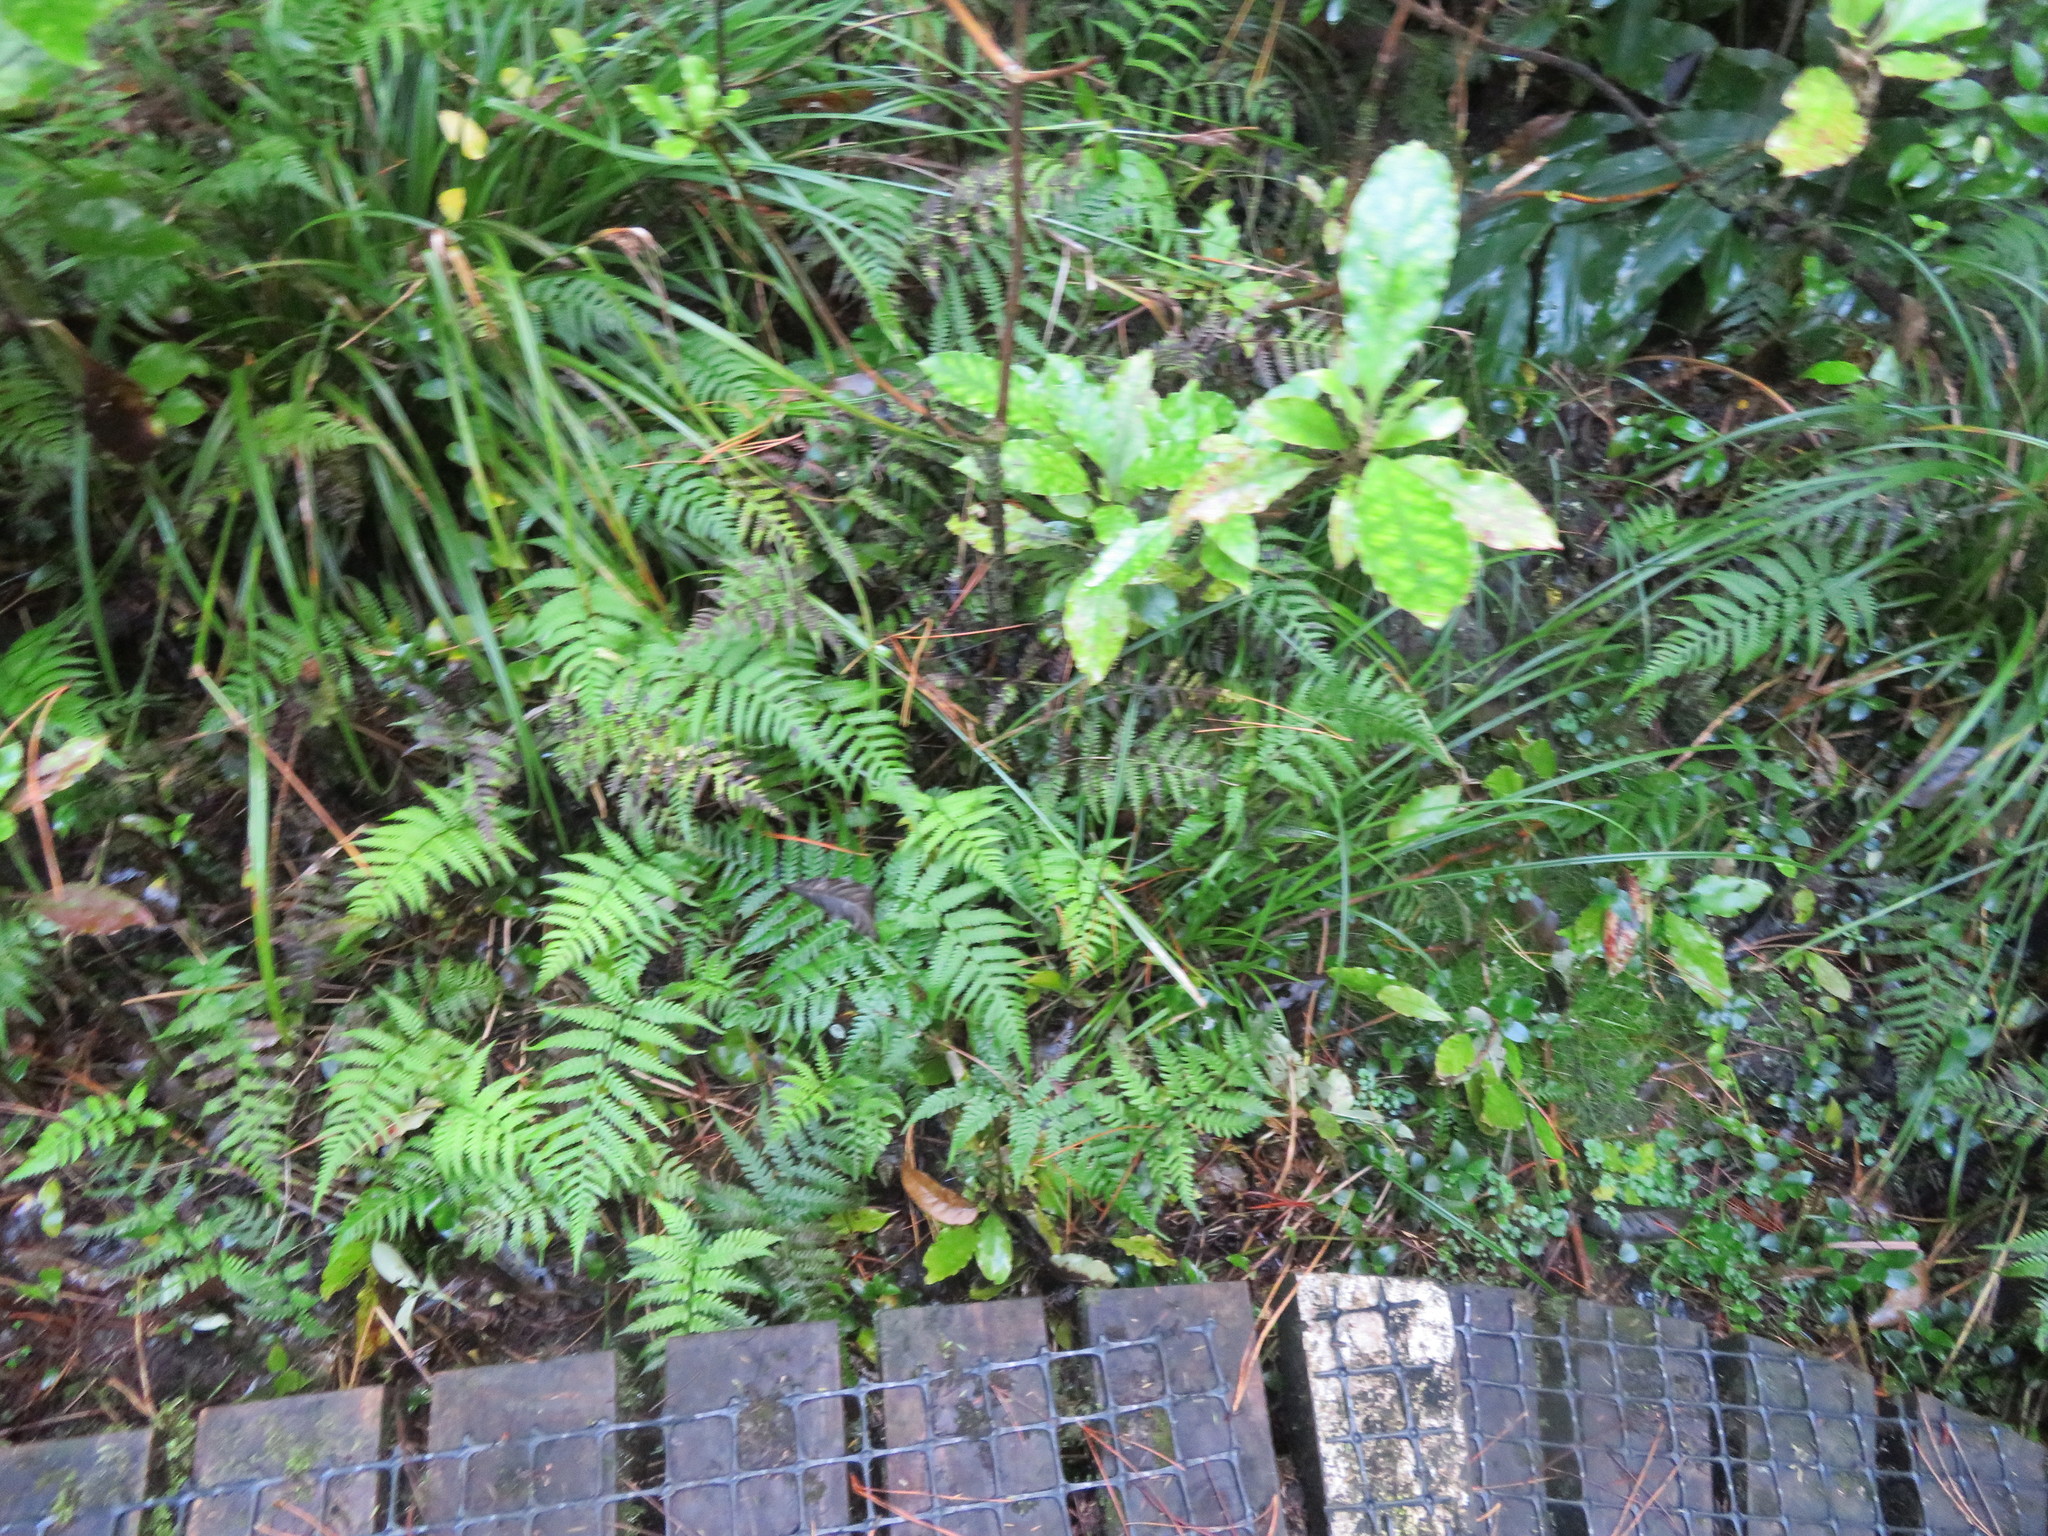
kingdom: Plantae
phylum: Tracheophyta
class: Polypodiopsida
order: Polypodiales
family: Athyriaceae
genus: Diplazium
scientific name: Diplazium congruum
